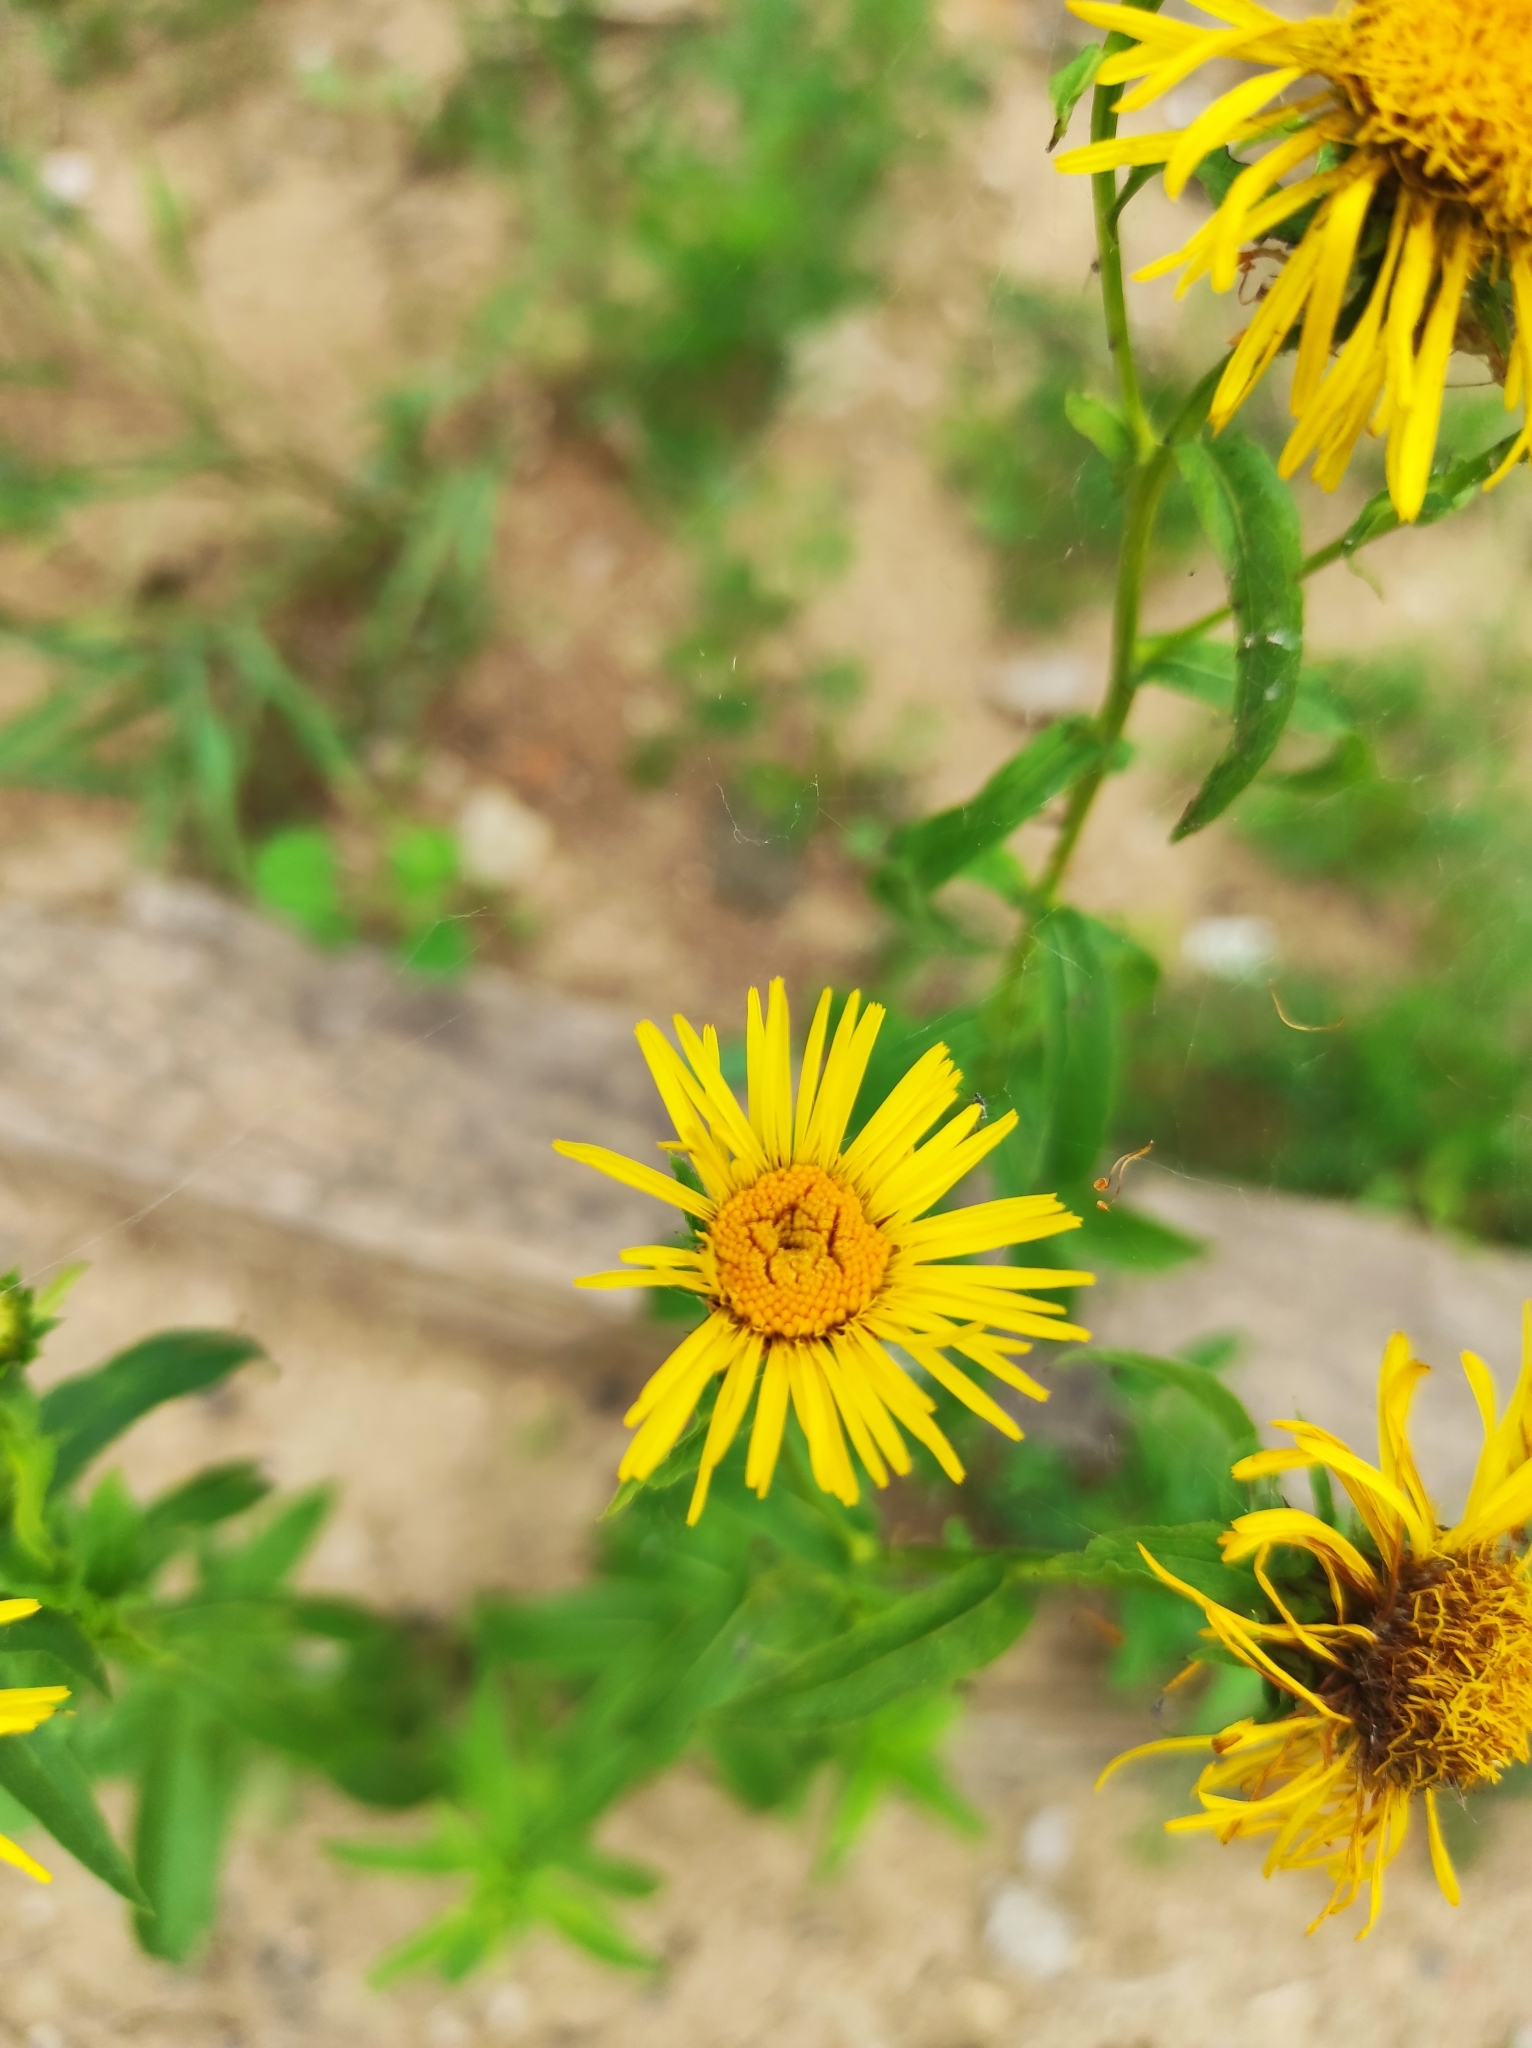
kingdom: Plantae
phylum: Tracheophyta
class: Magnoliopsida
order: Asterales
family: Asteraceae
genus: Pentanema
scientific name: Pentanema salicinum
